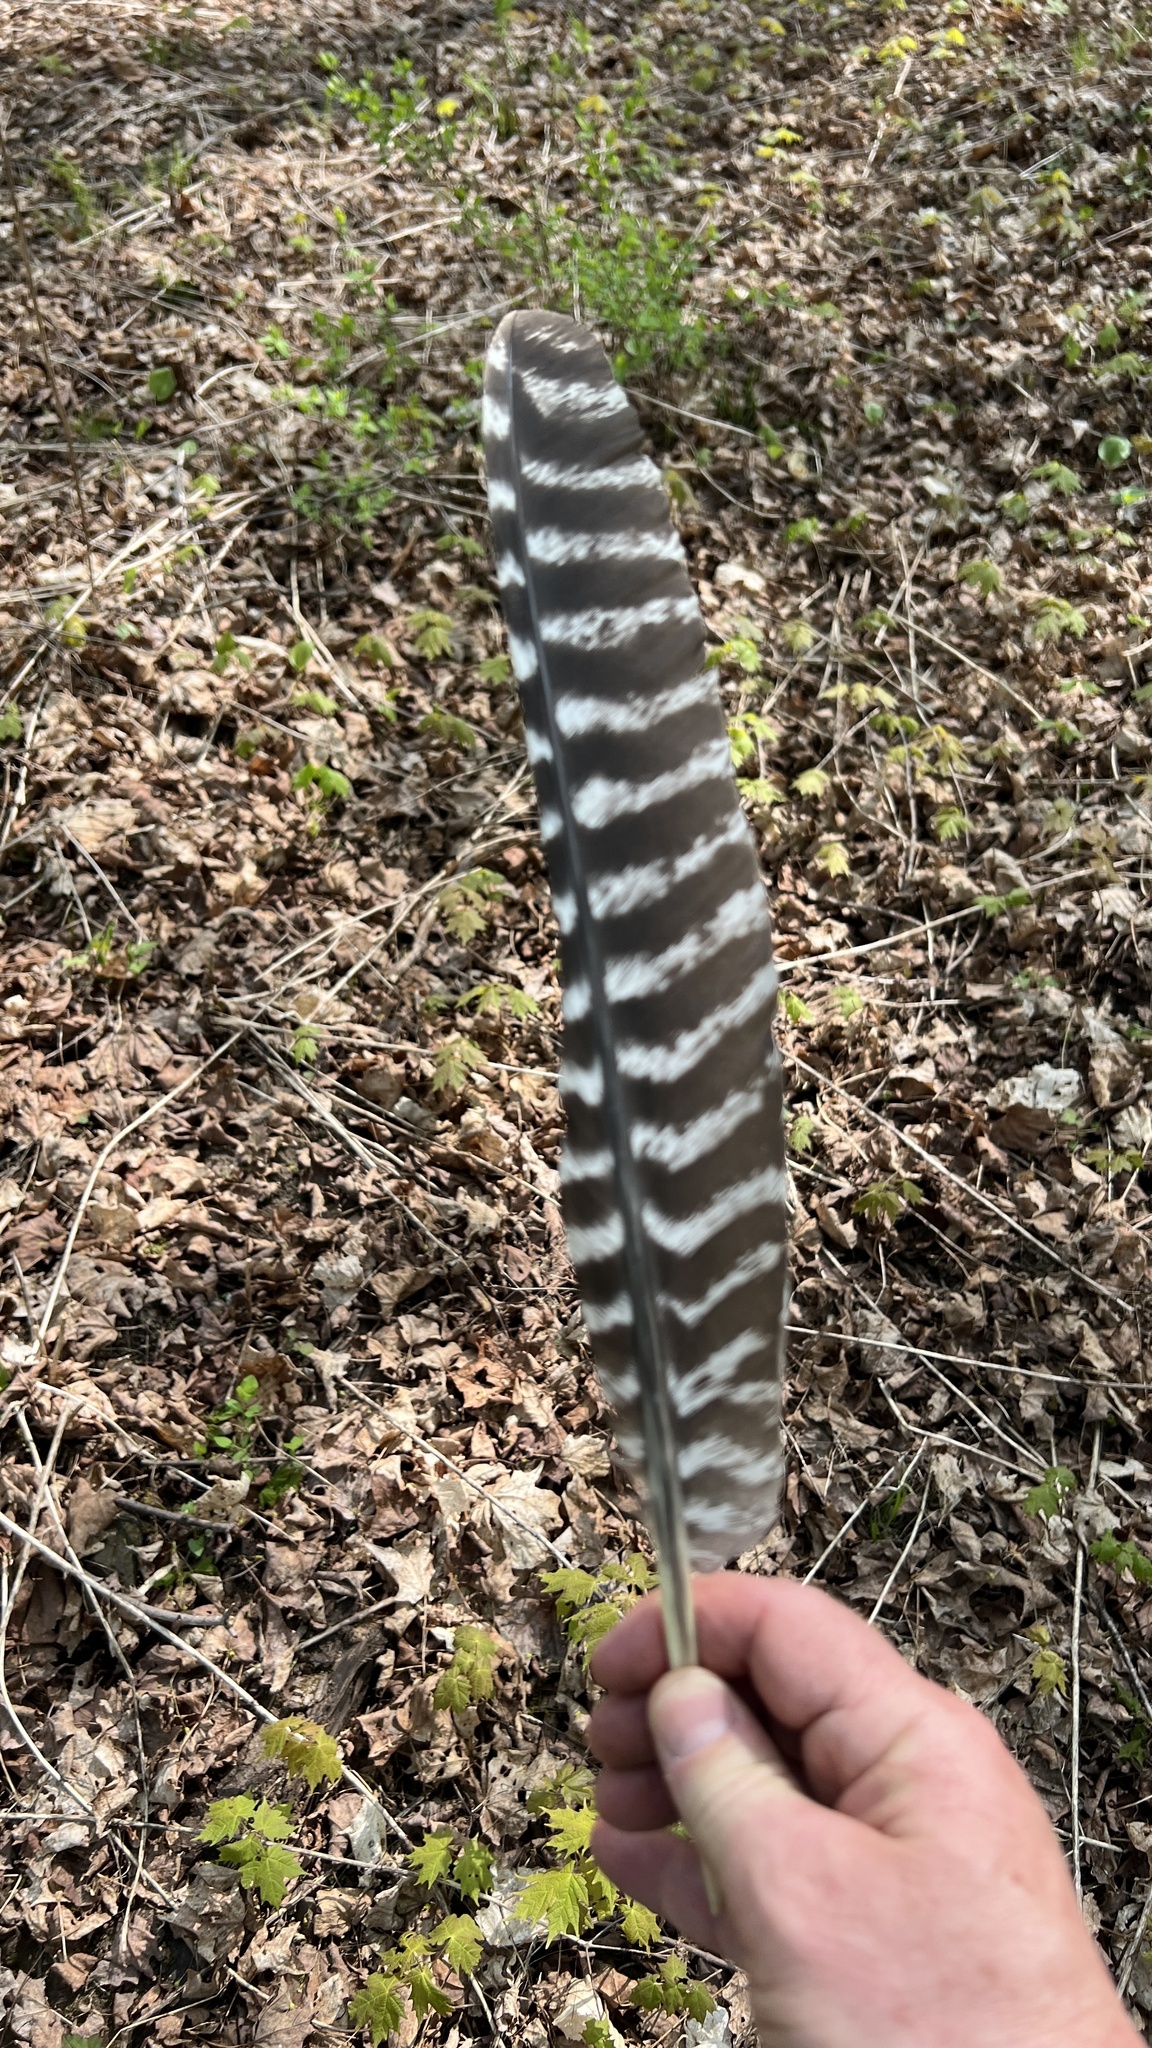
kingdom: Animalia
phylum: Chordata
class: Aves
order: Galliformes
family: Phasianidae
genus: Meleagris
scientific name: Meleagris gallopavo
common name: Wild turkey
